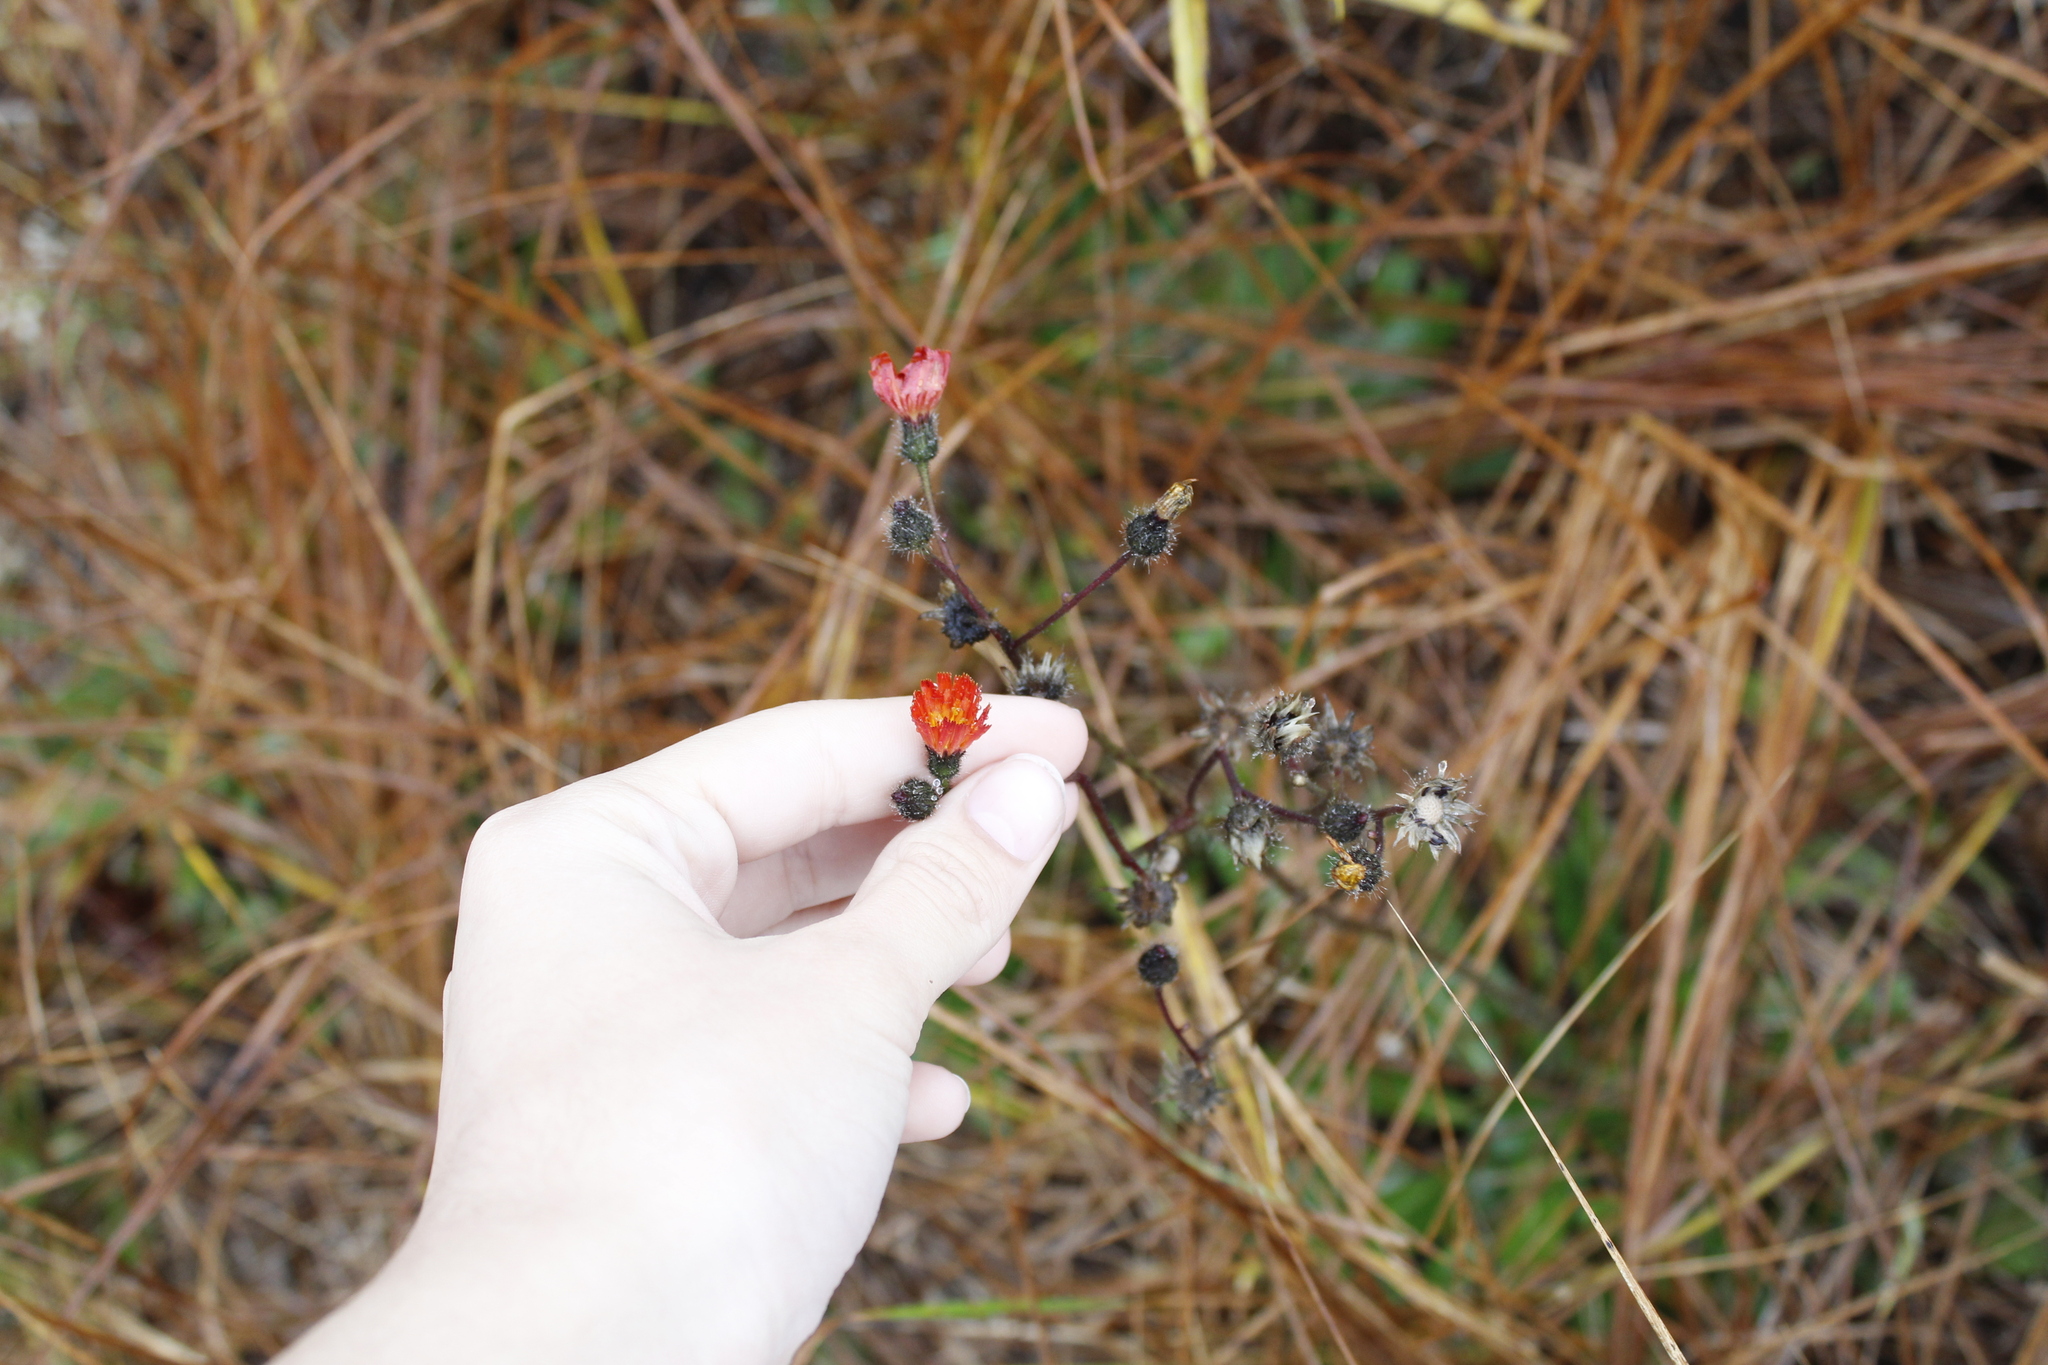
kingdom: Plantae
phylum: Tracheophyta
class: Magnoliopsida
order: Asterales
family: Asteraceae
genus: Pilosella
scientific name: Pilosella aurantiaca
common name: Fox-and-cubs
